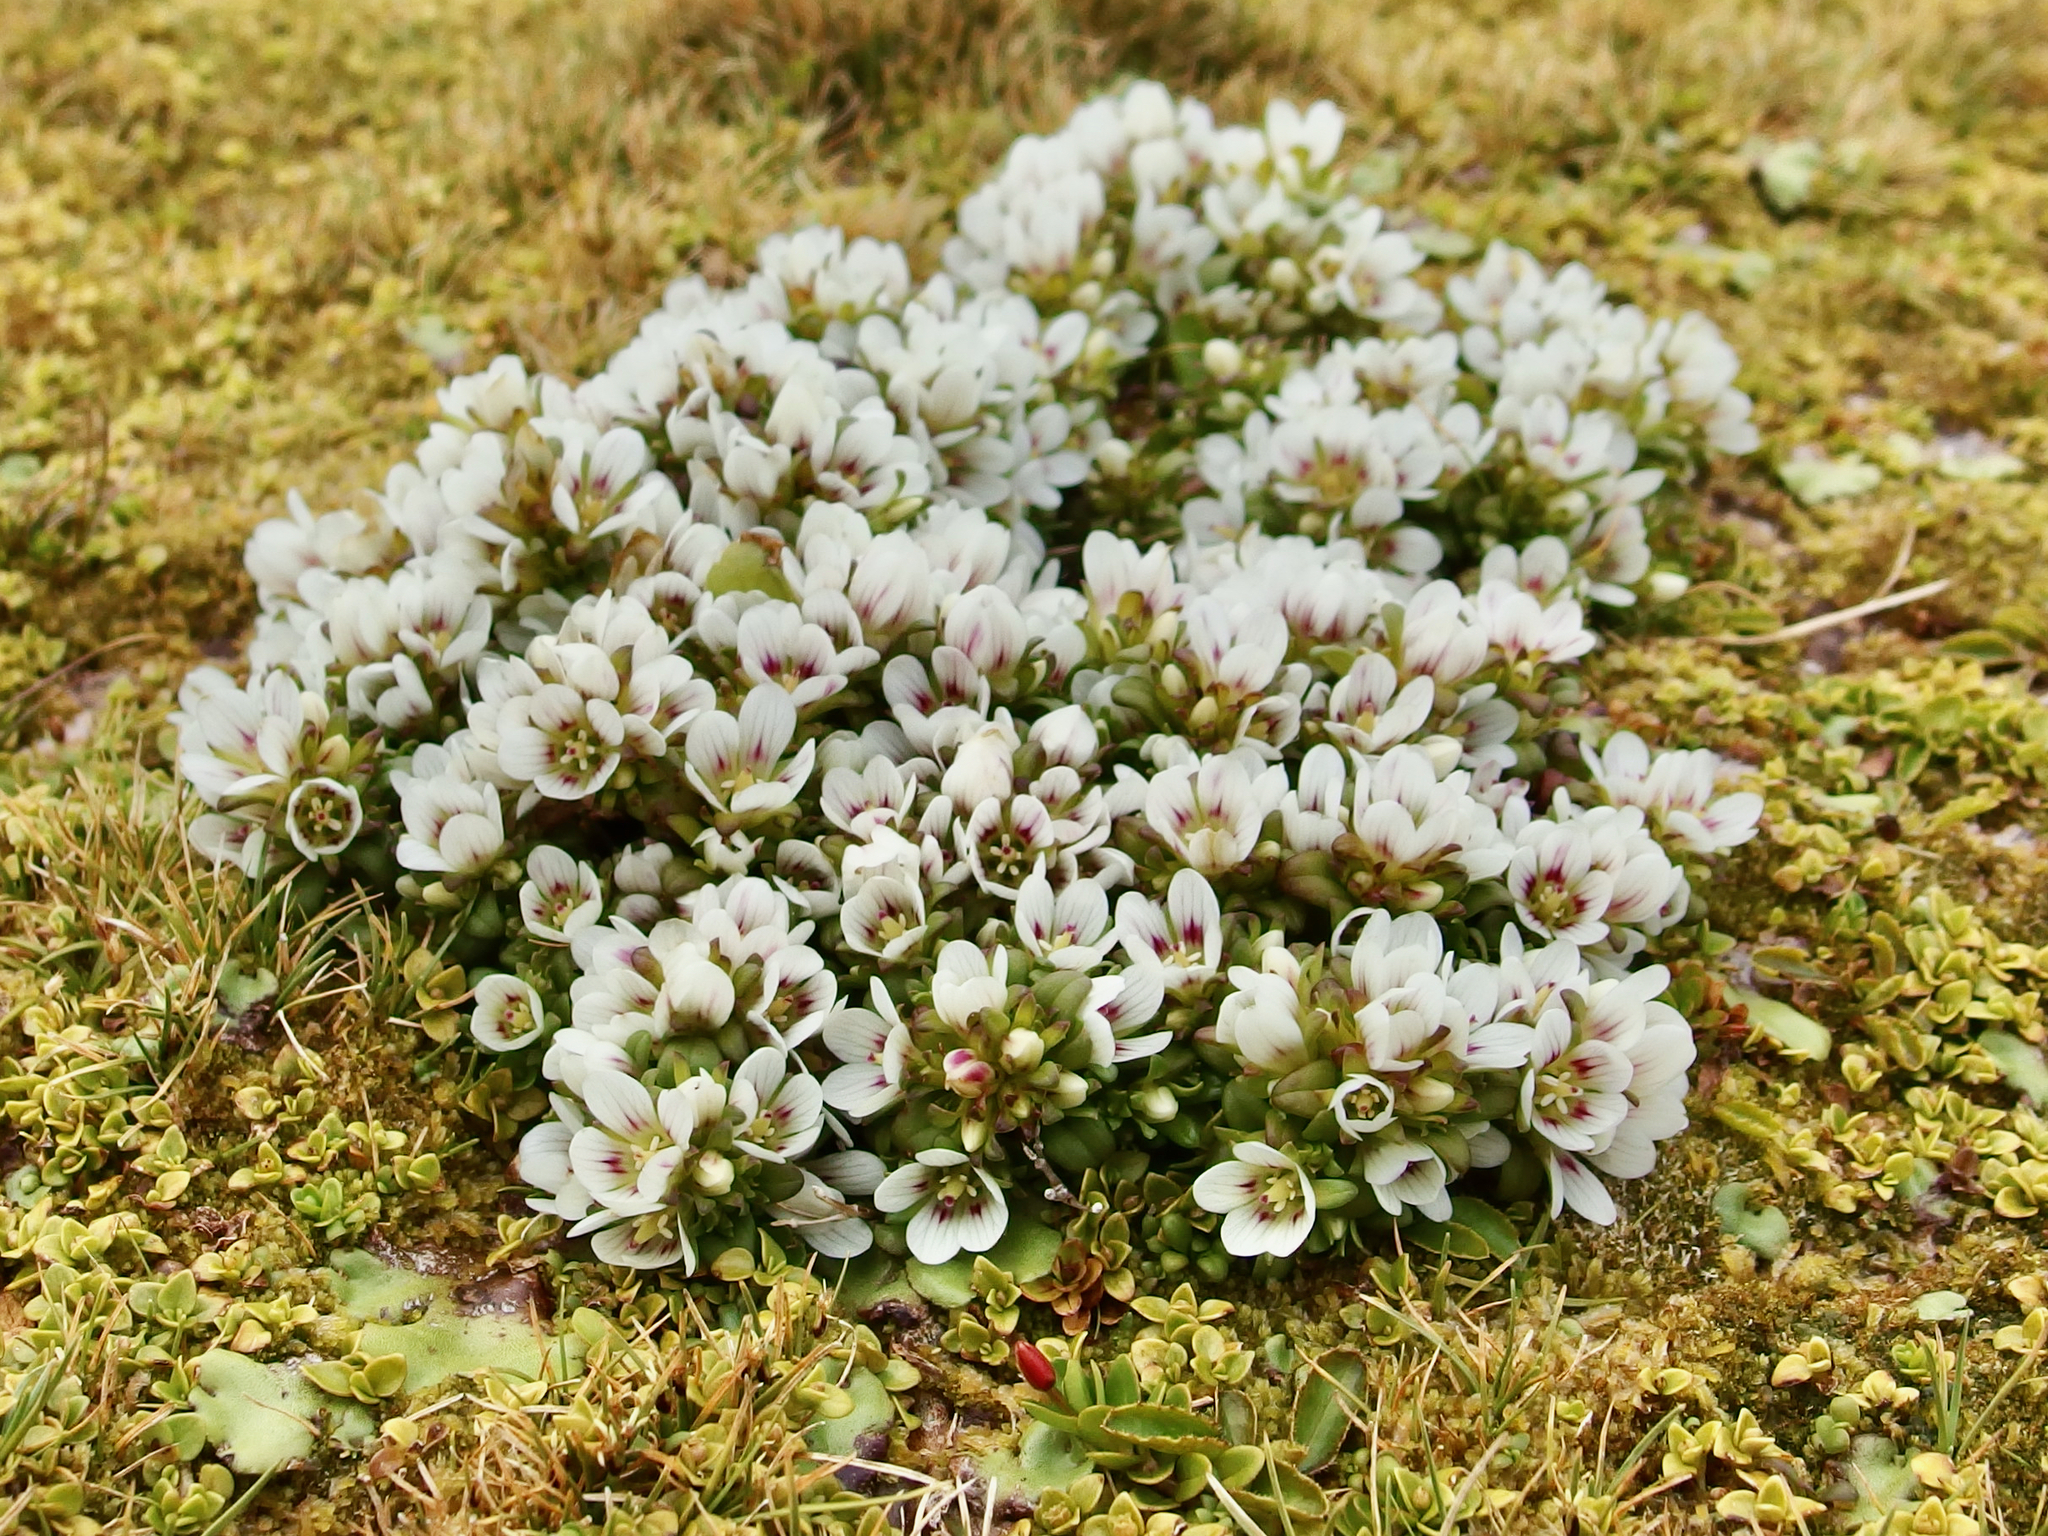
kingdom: Plantae
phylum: Tracheophyta
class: Magnoliopsida
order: Gentianales
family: Gentianaceae
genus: Gentianella
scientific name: Gentianella cerina
